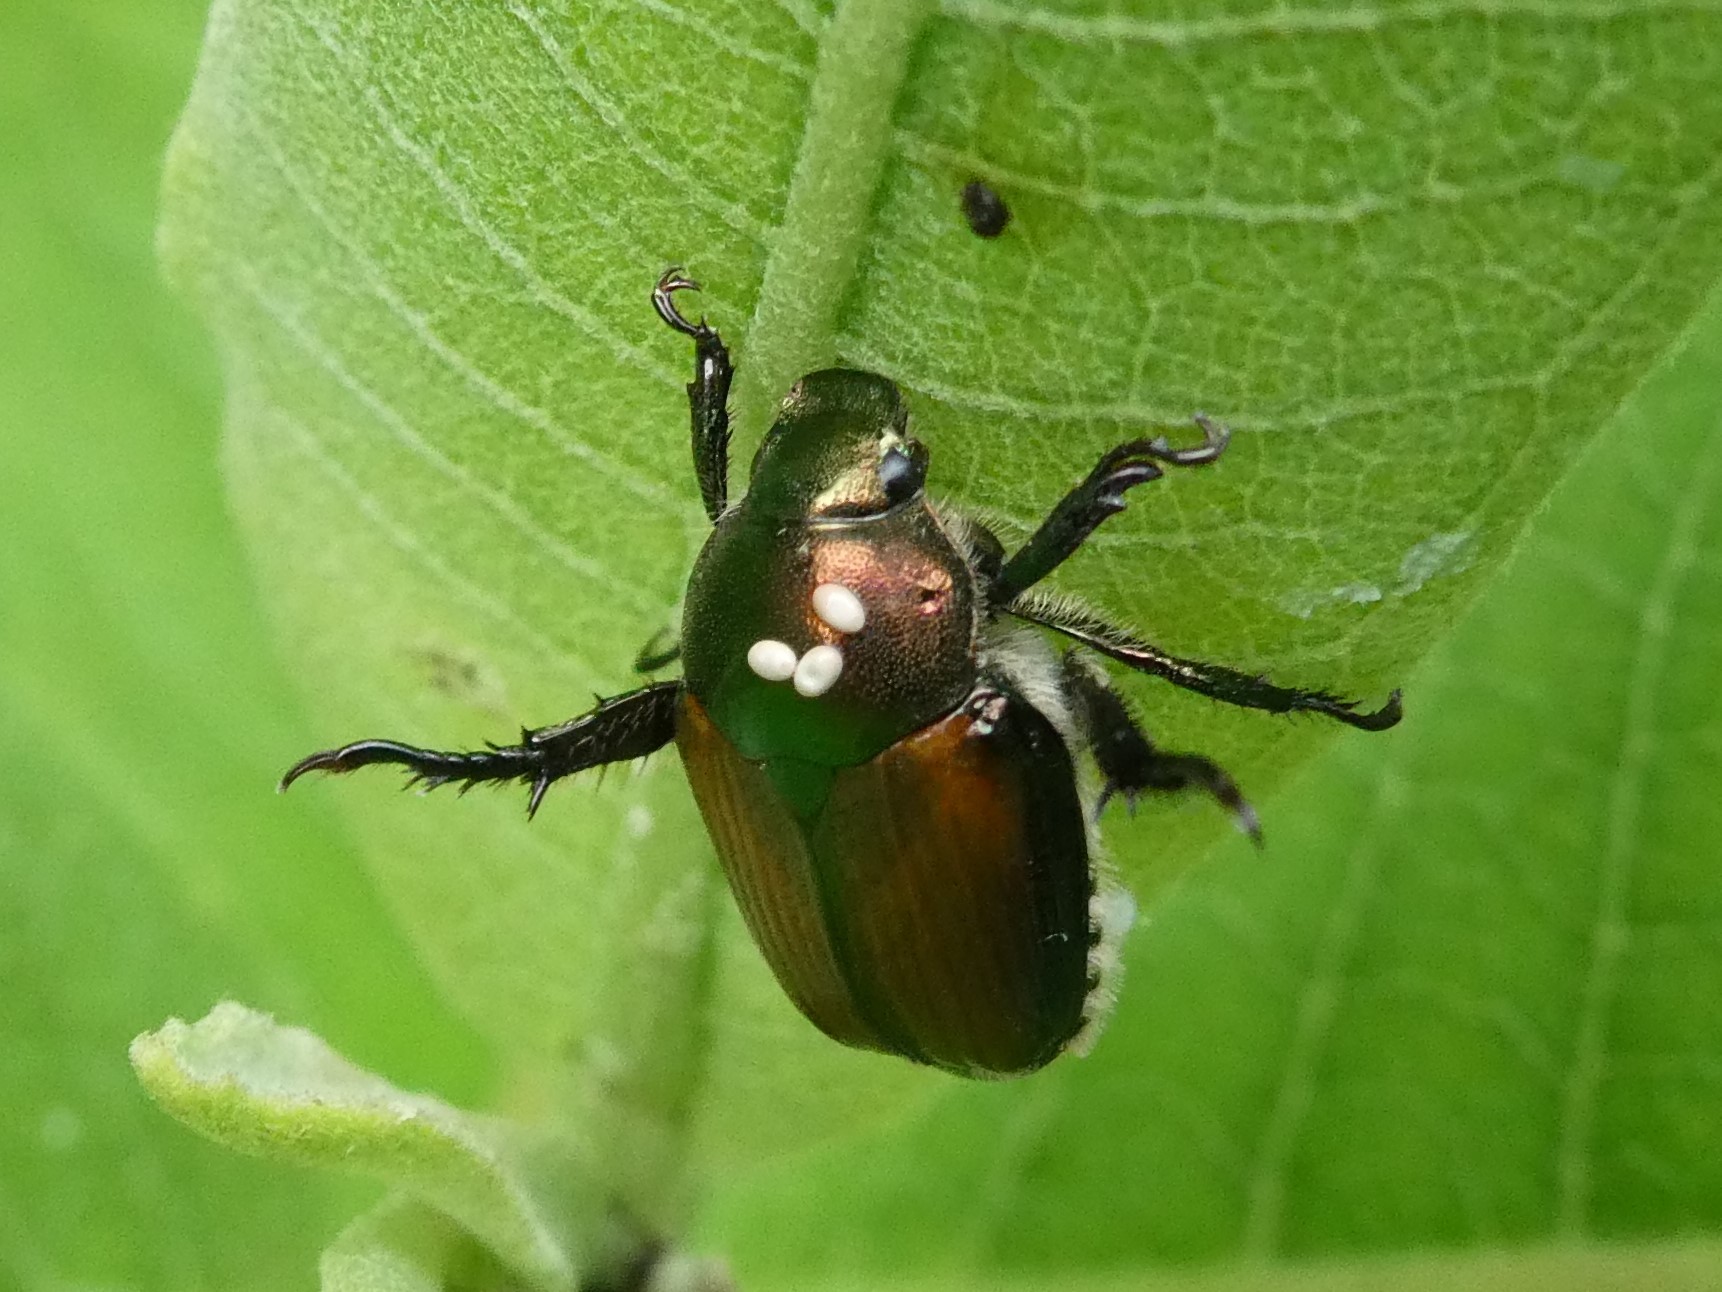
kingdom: Animalia
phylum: Arthropoda
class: Insecta
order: Diptera
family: Tachinidae
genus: Istocheta
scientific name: Istocheta aldrichi
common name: Parasitic wasp
